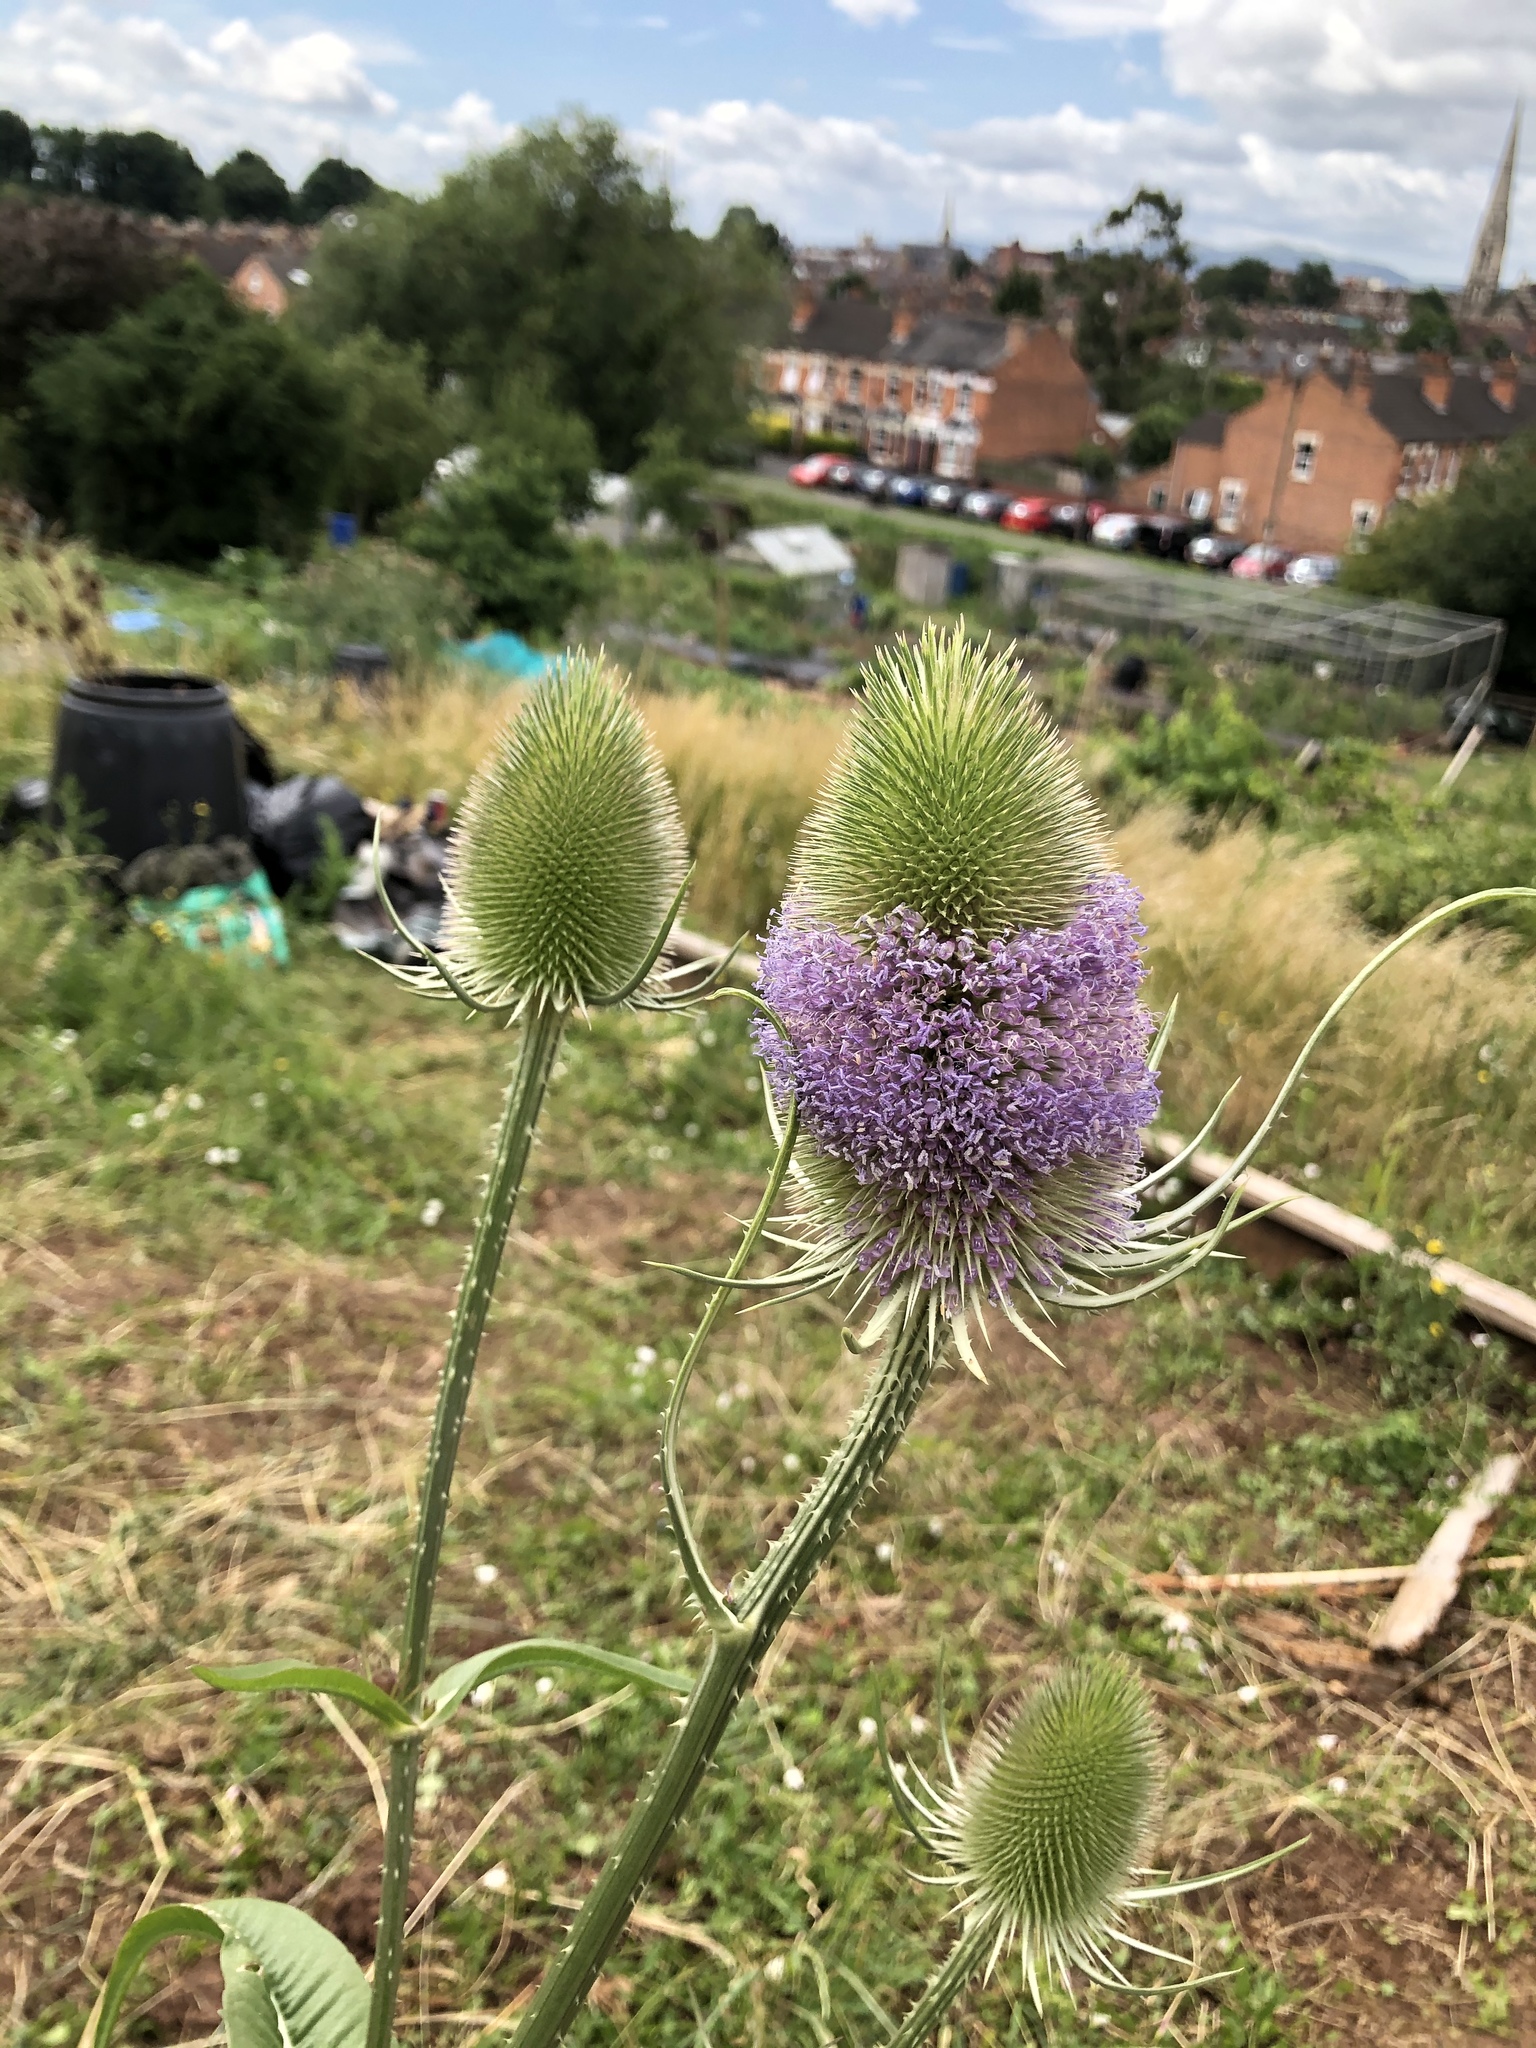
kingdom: Plantae
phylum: Tracheophyta
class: Magnoliopsida
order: Dipsacales
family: Caprifoliaceae
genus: Dipsacus
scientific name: Dipsacus fullonum
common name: Teasel
